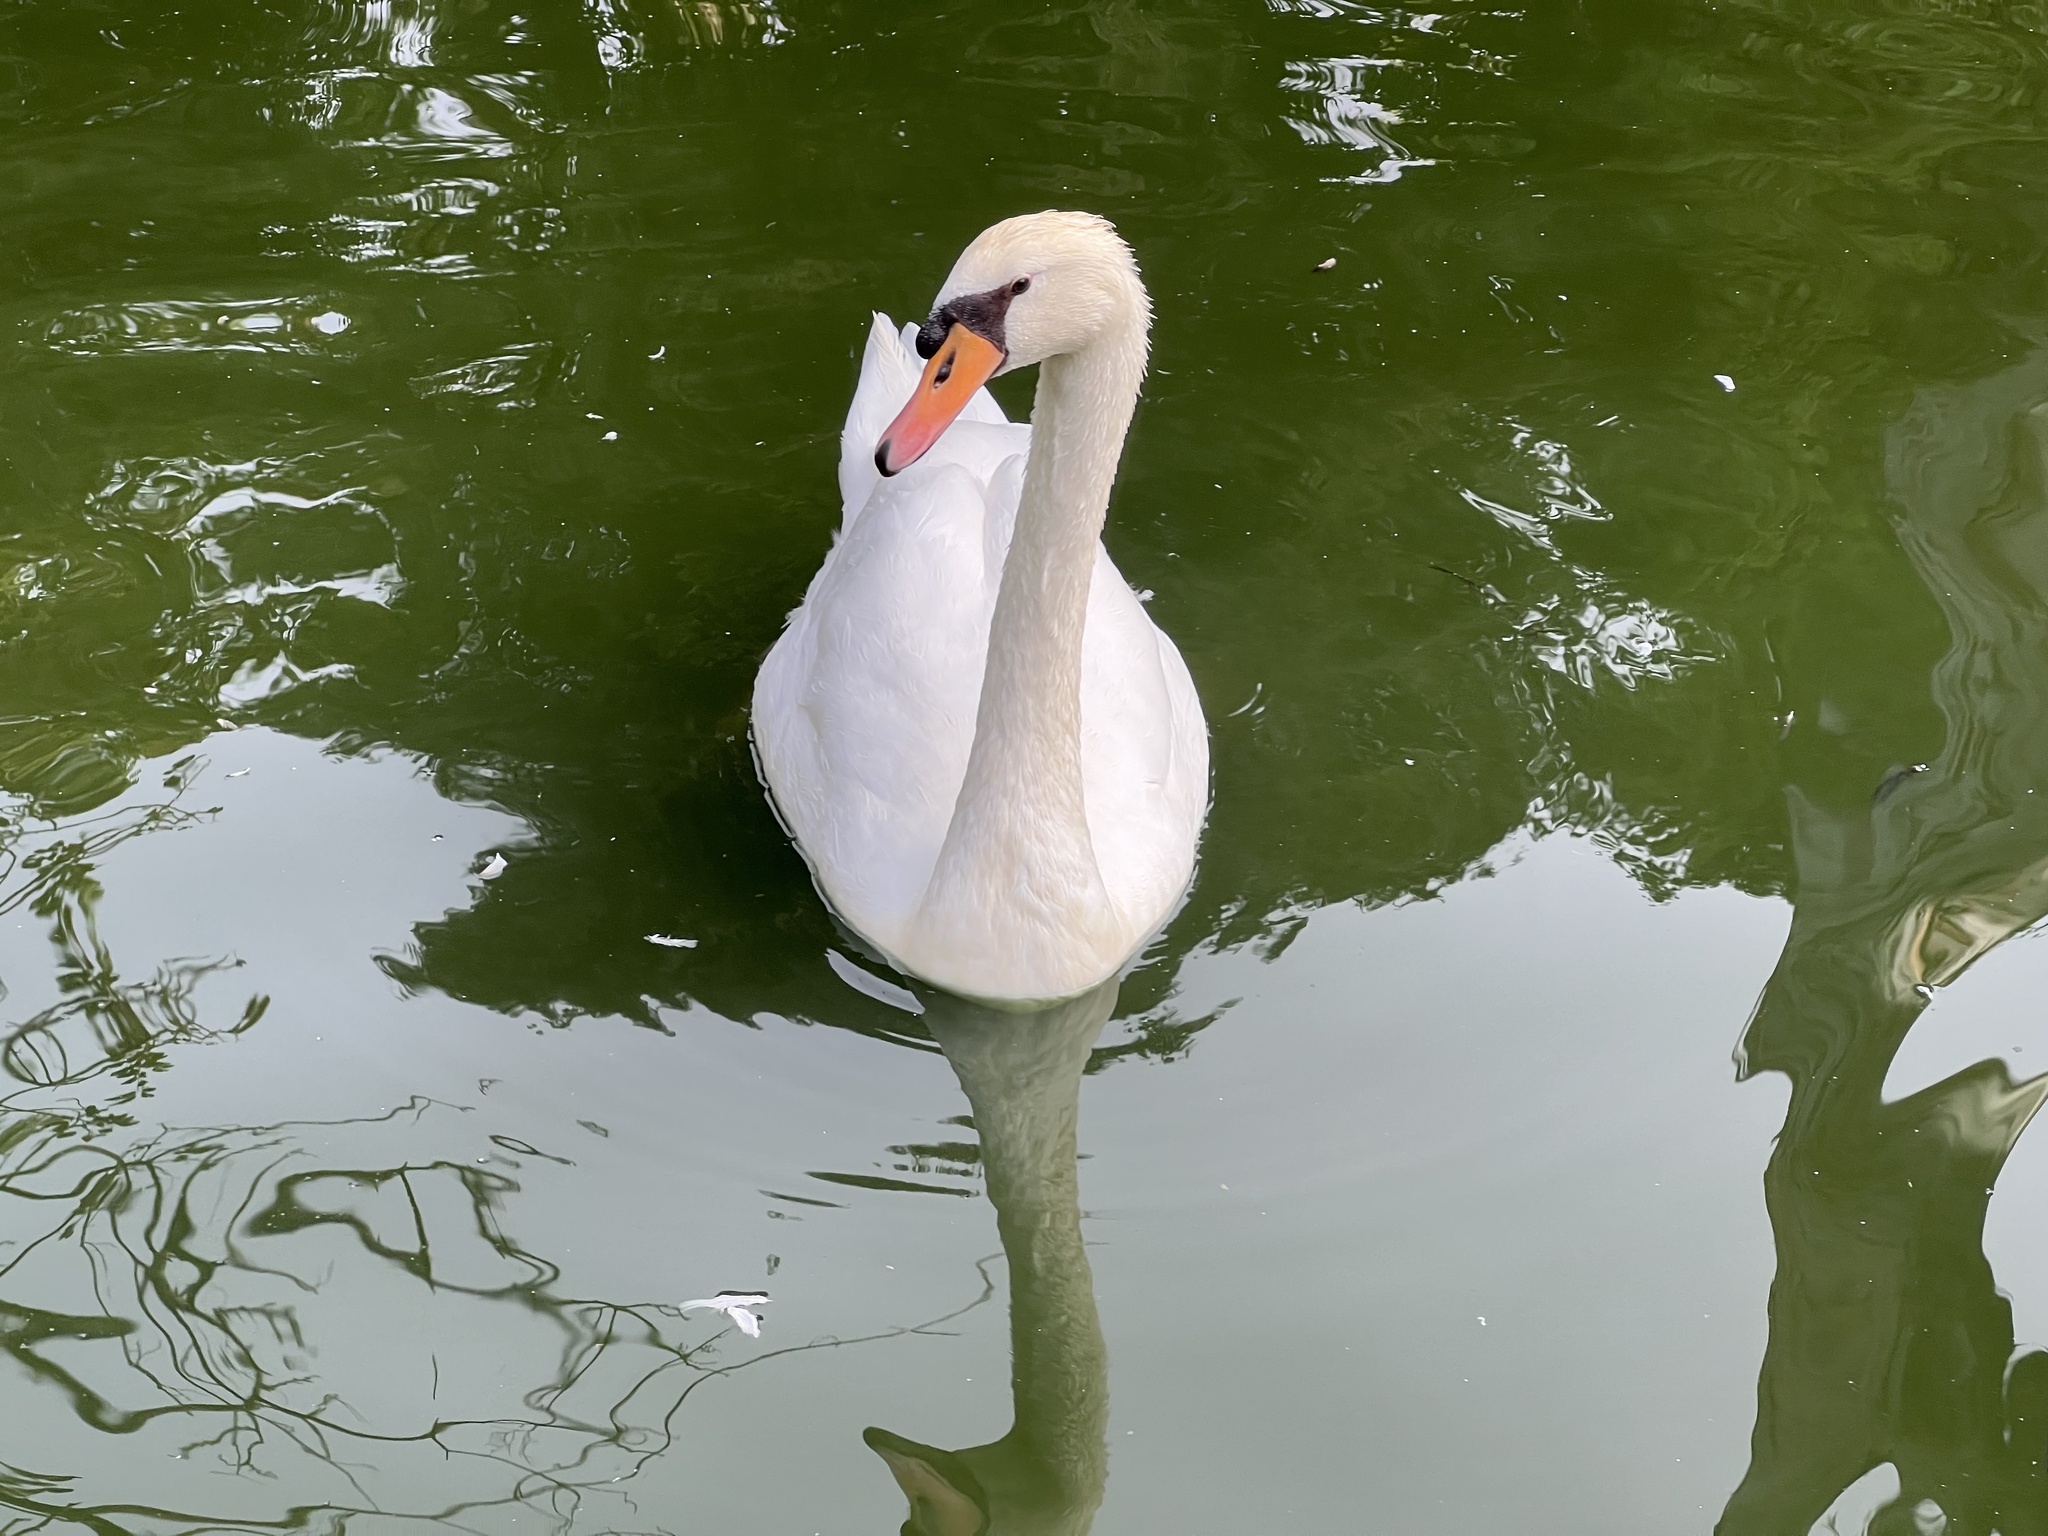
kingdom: Animalia
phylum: Chordata
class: Aves
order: Anseriformes
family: Anatidae
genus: Cygnus
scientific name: Cygnus olor
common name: Mute swan
